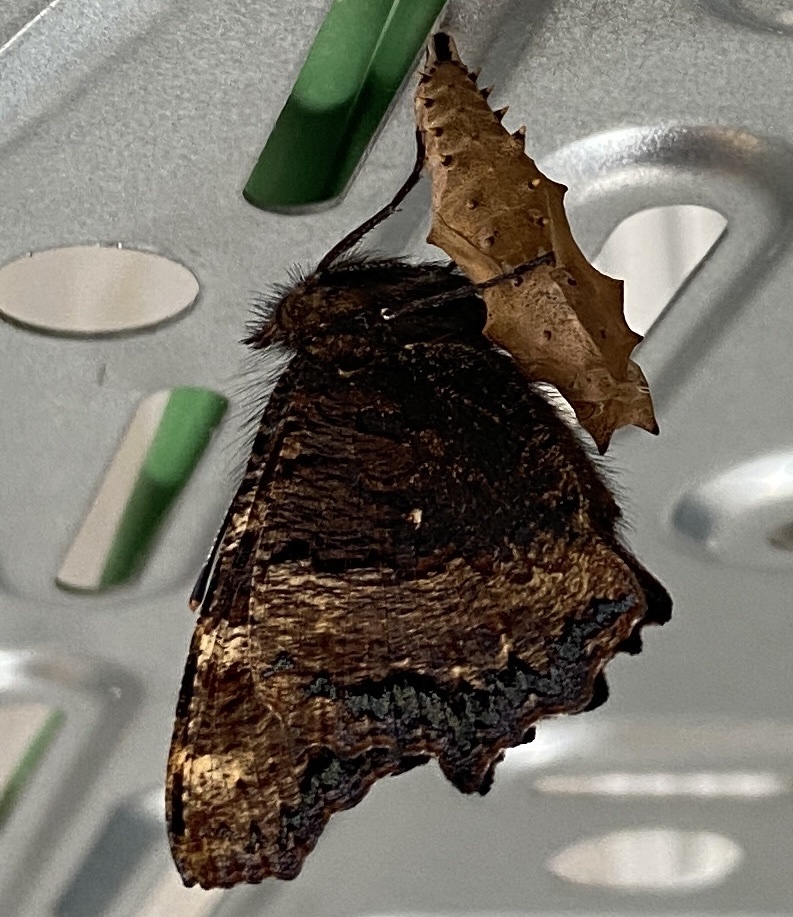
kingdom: Animalia
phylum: Arthropoda
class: Insecta
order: Lepidoptera
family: Nymphalidae
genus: Nymphalis
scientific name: Nymphalis polychloros
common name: Large tortoiseshell
